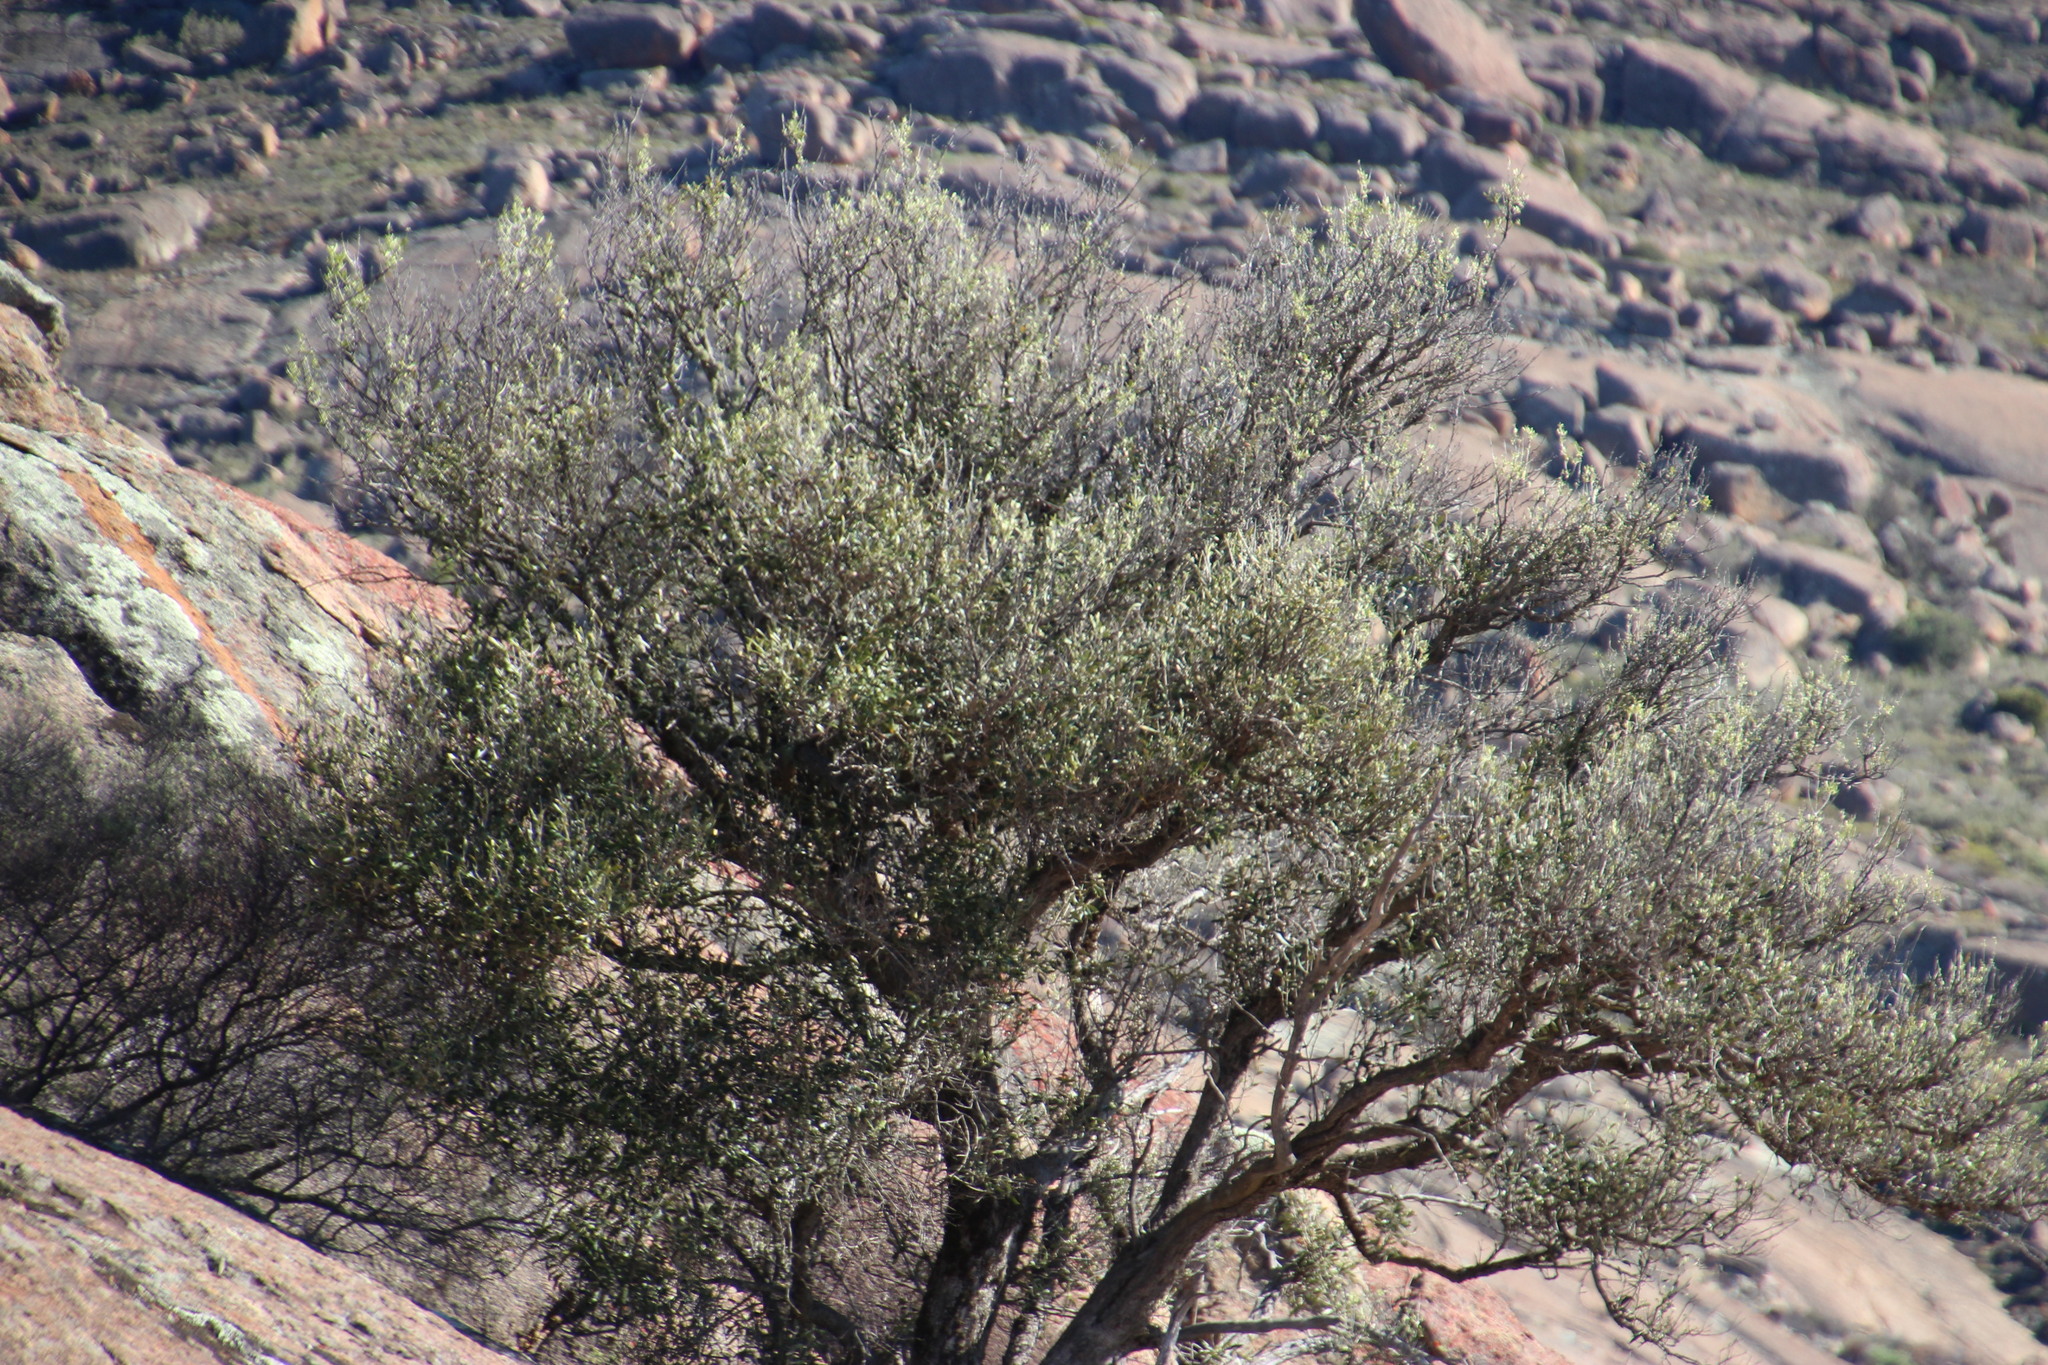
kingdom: Plantae
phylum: Tracheophyta
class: Magnoliopsida
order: Lamiales
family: Oleaceae
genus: Olea
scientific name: Olea europaea
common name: Olive
